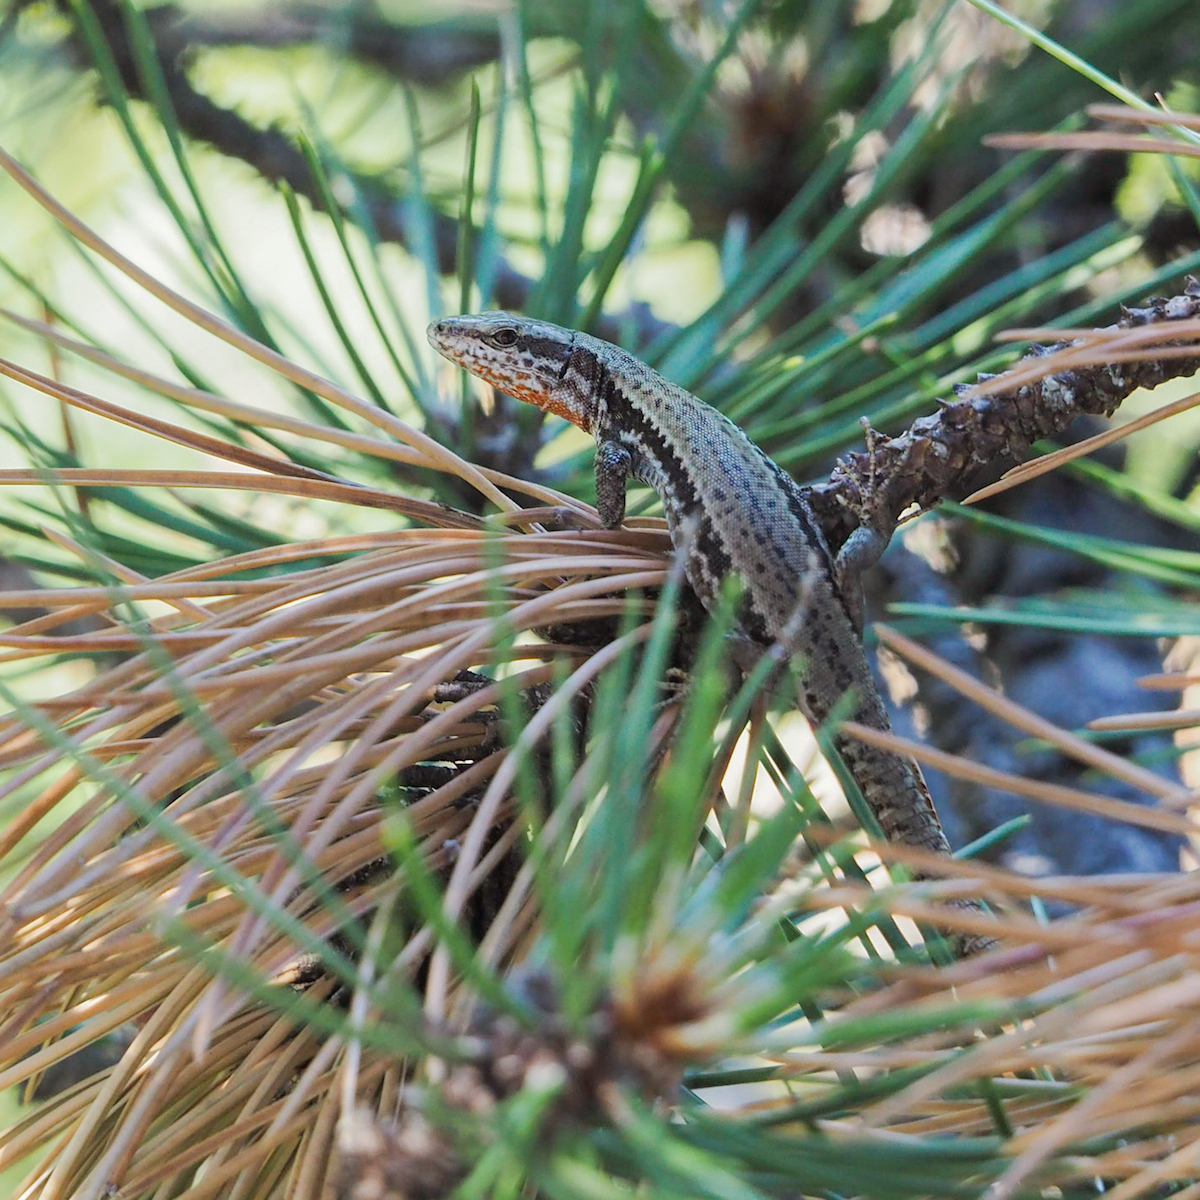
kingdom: Animalia
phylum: Chordata
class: Squamata
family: Lacertidae
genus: Podarcis
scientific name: Podarcis muralis
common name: Common wall lizard
